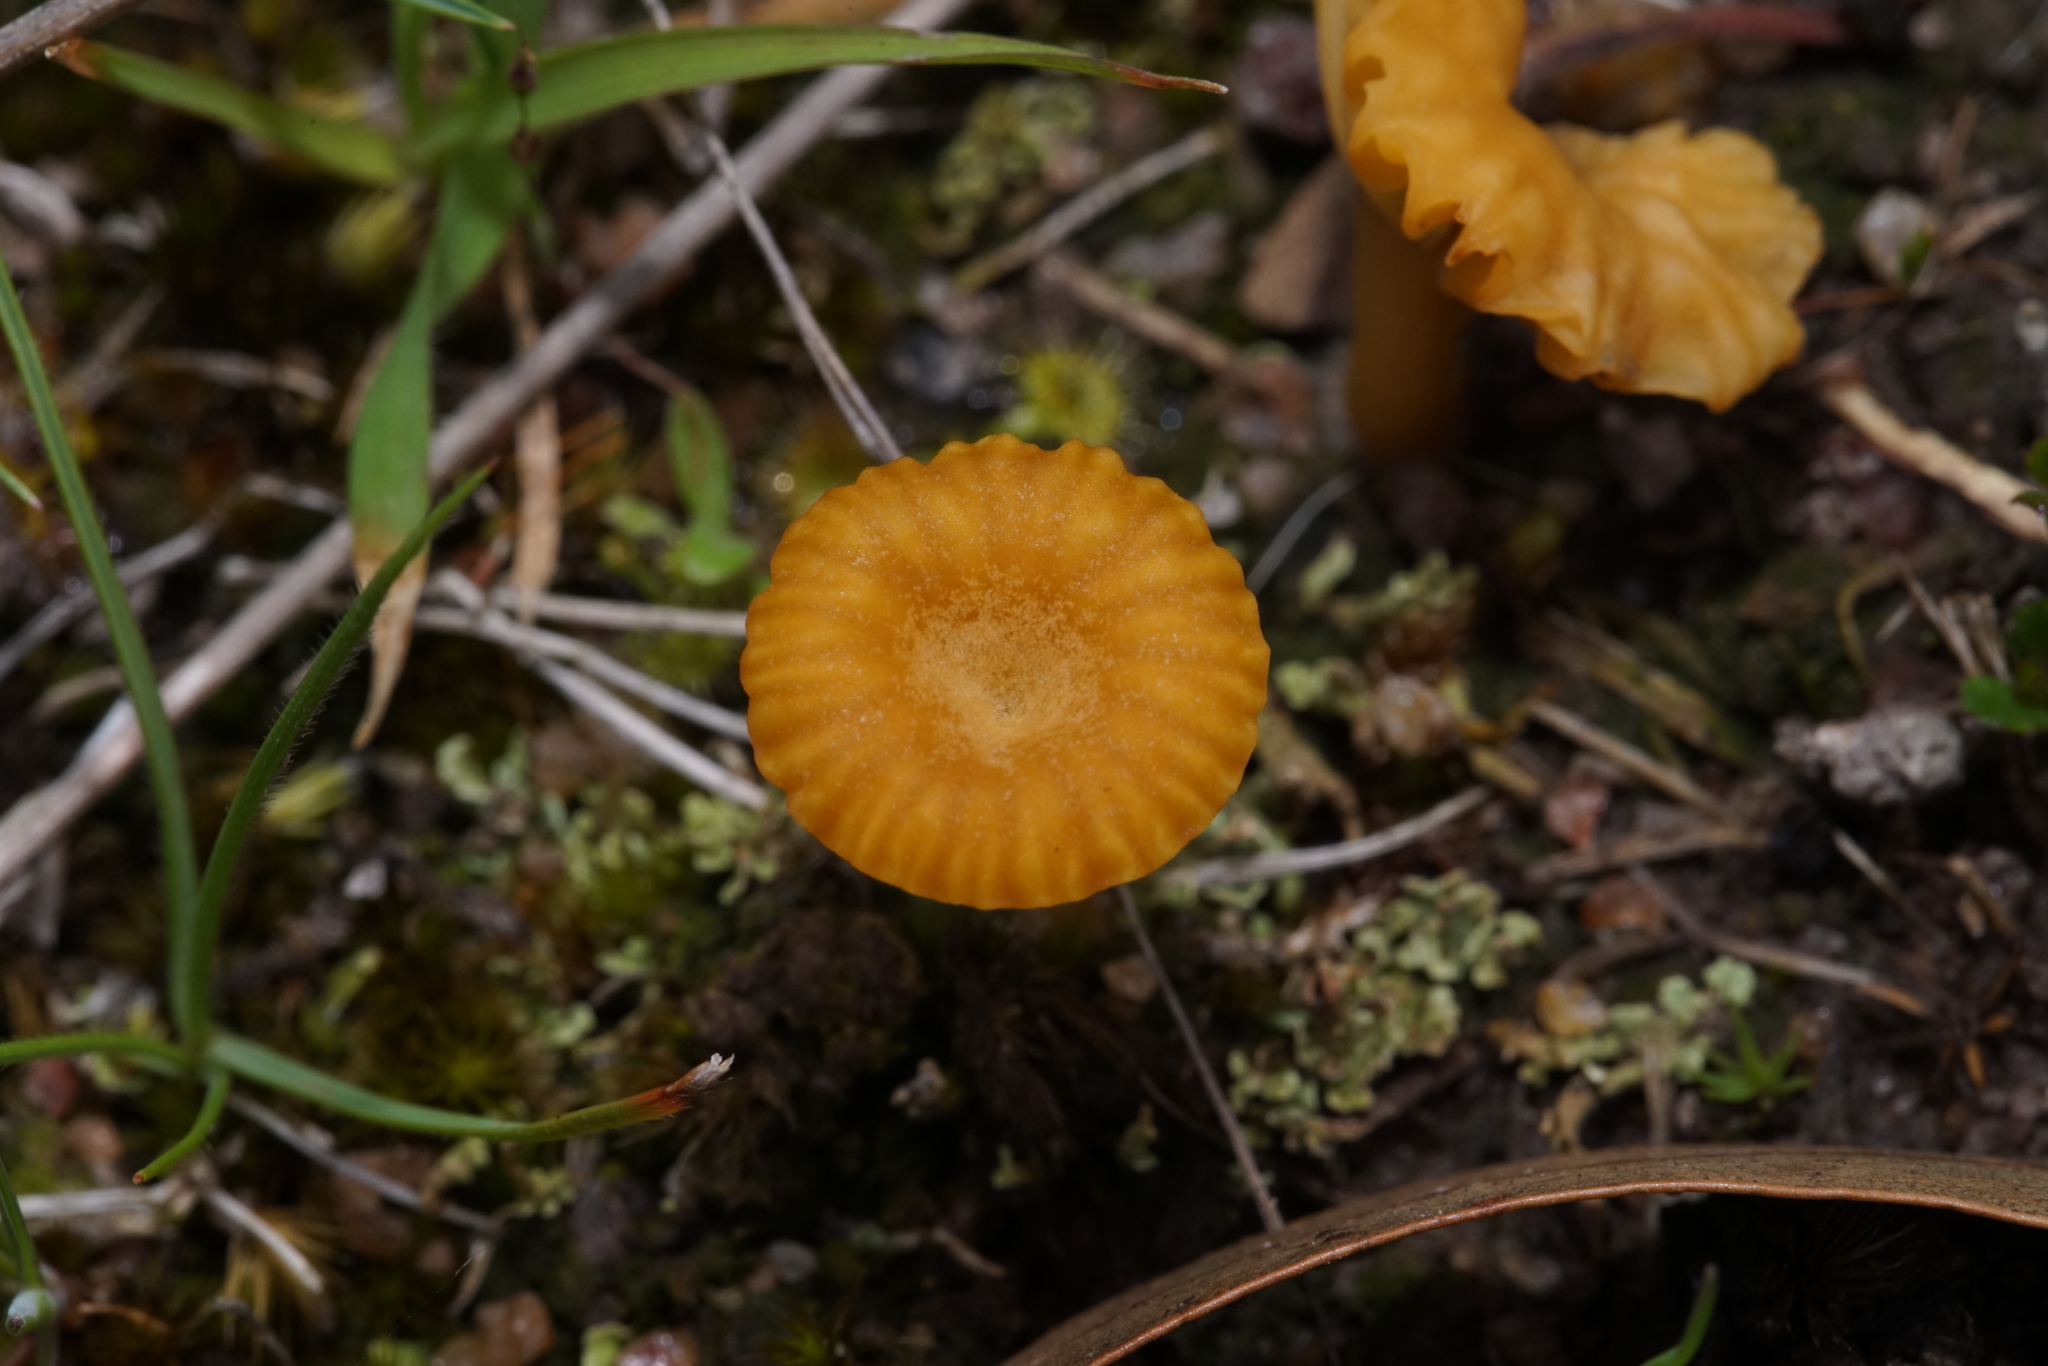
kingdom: Fungi
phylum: Basidiomycota
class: Agaricomycetes
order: Agaricales
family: Hygrophoraceae
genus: Lichenomphalia
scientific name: Lichenomphalia chromacea
